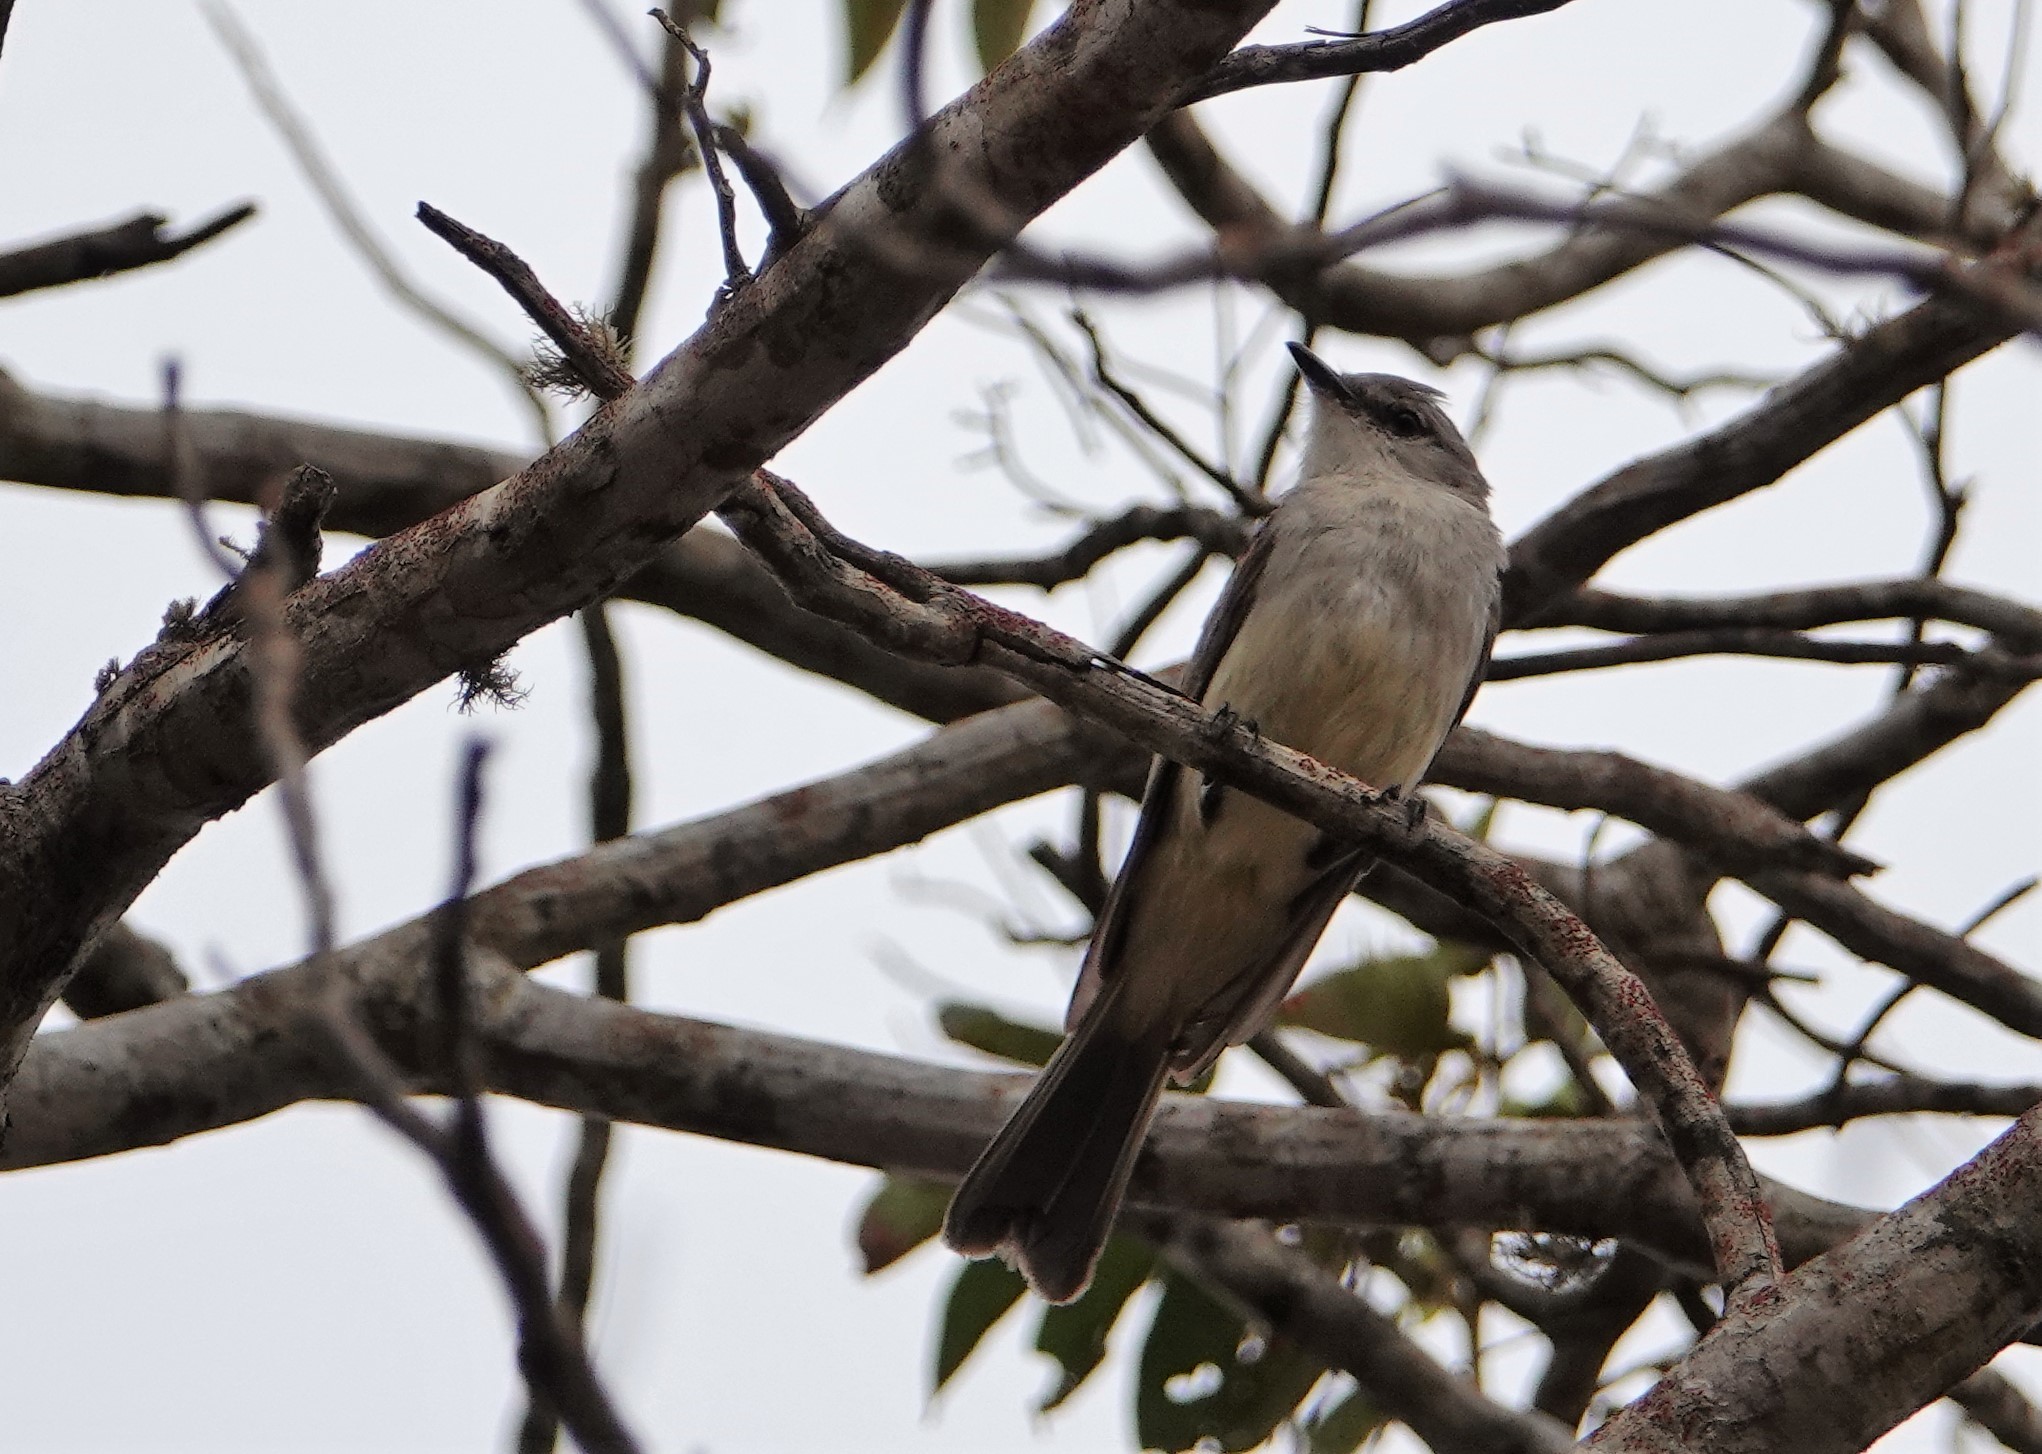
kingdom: Animalia
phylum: Chordata
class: Aves
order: Passeriformes
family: Tyrannidae
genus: Suiriri
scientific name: Suiriri suiriri
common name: Suiriri flycatcher
